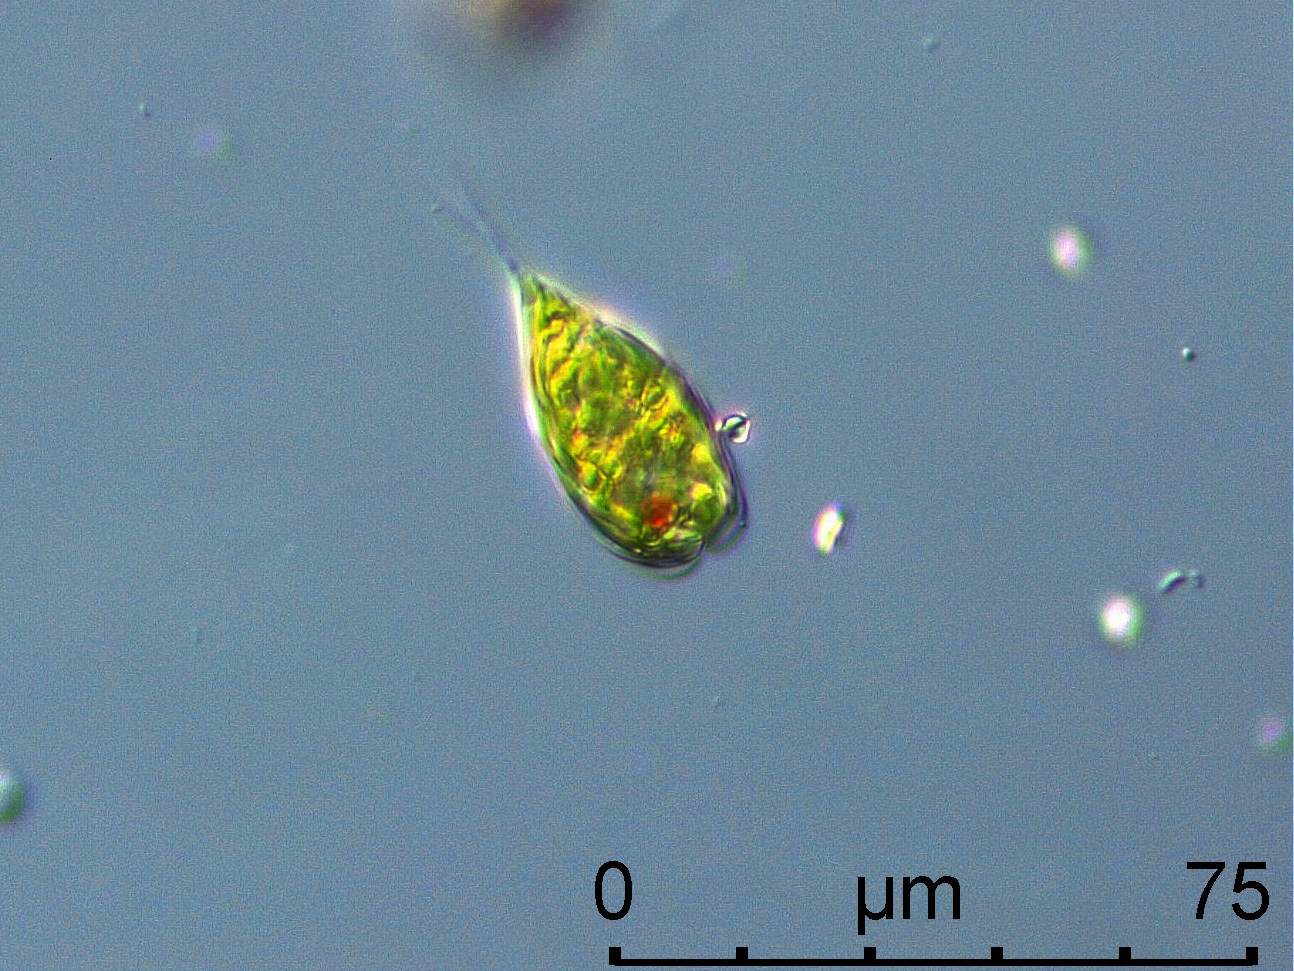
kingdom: Protozoa
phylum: Euglenozoa
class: Euglenoidea
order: Euglenida
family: Euglenaceae
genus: Monomorphina
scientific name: Monomorphina pyrum
